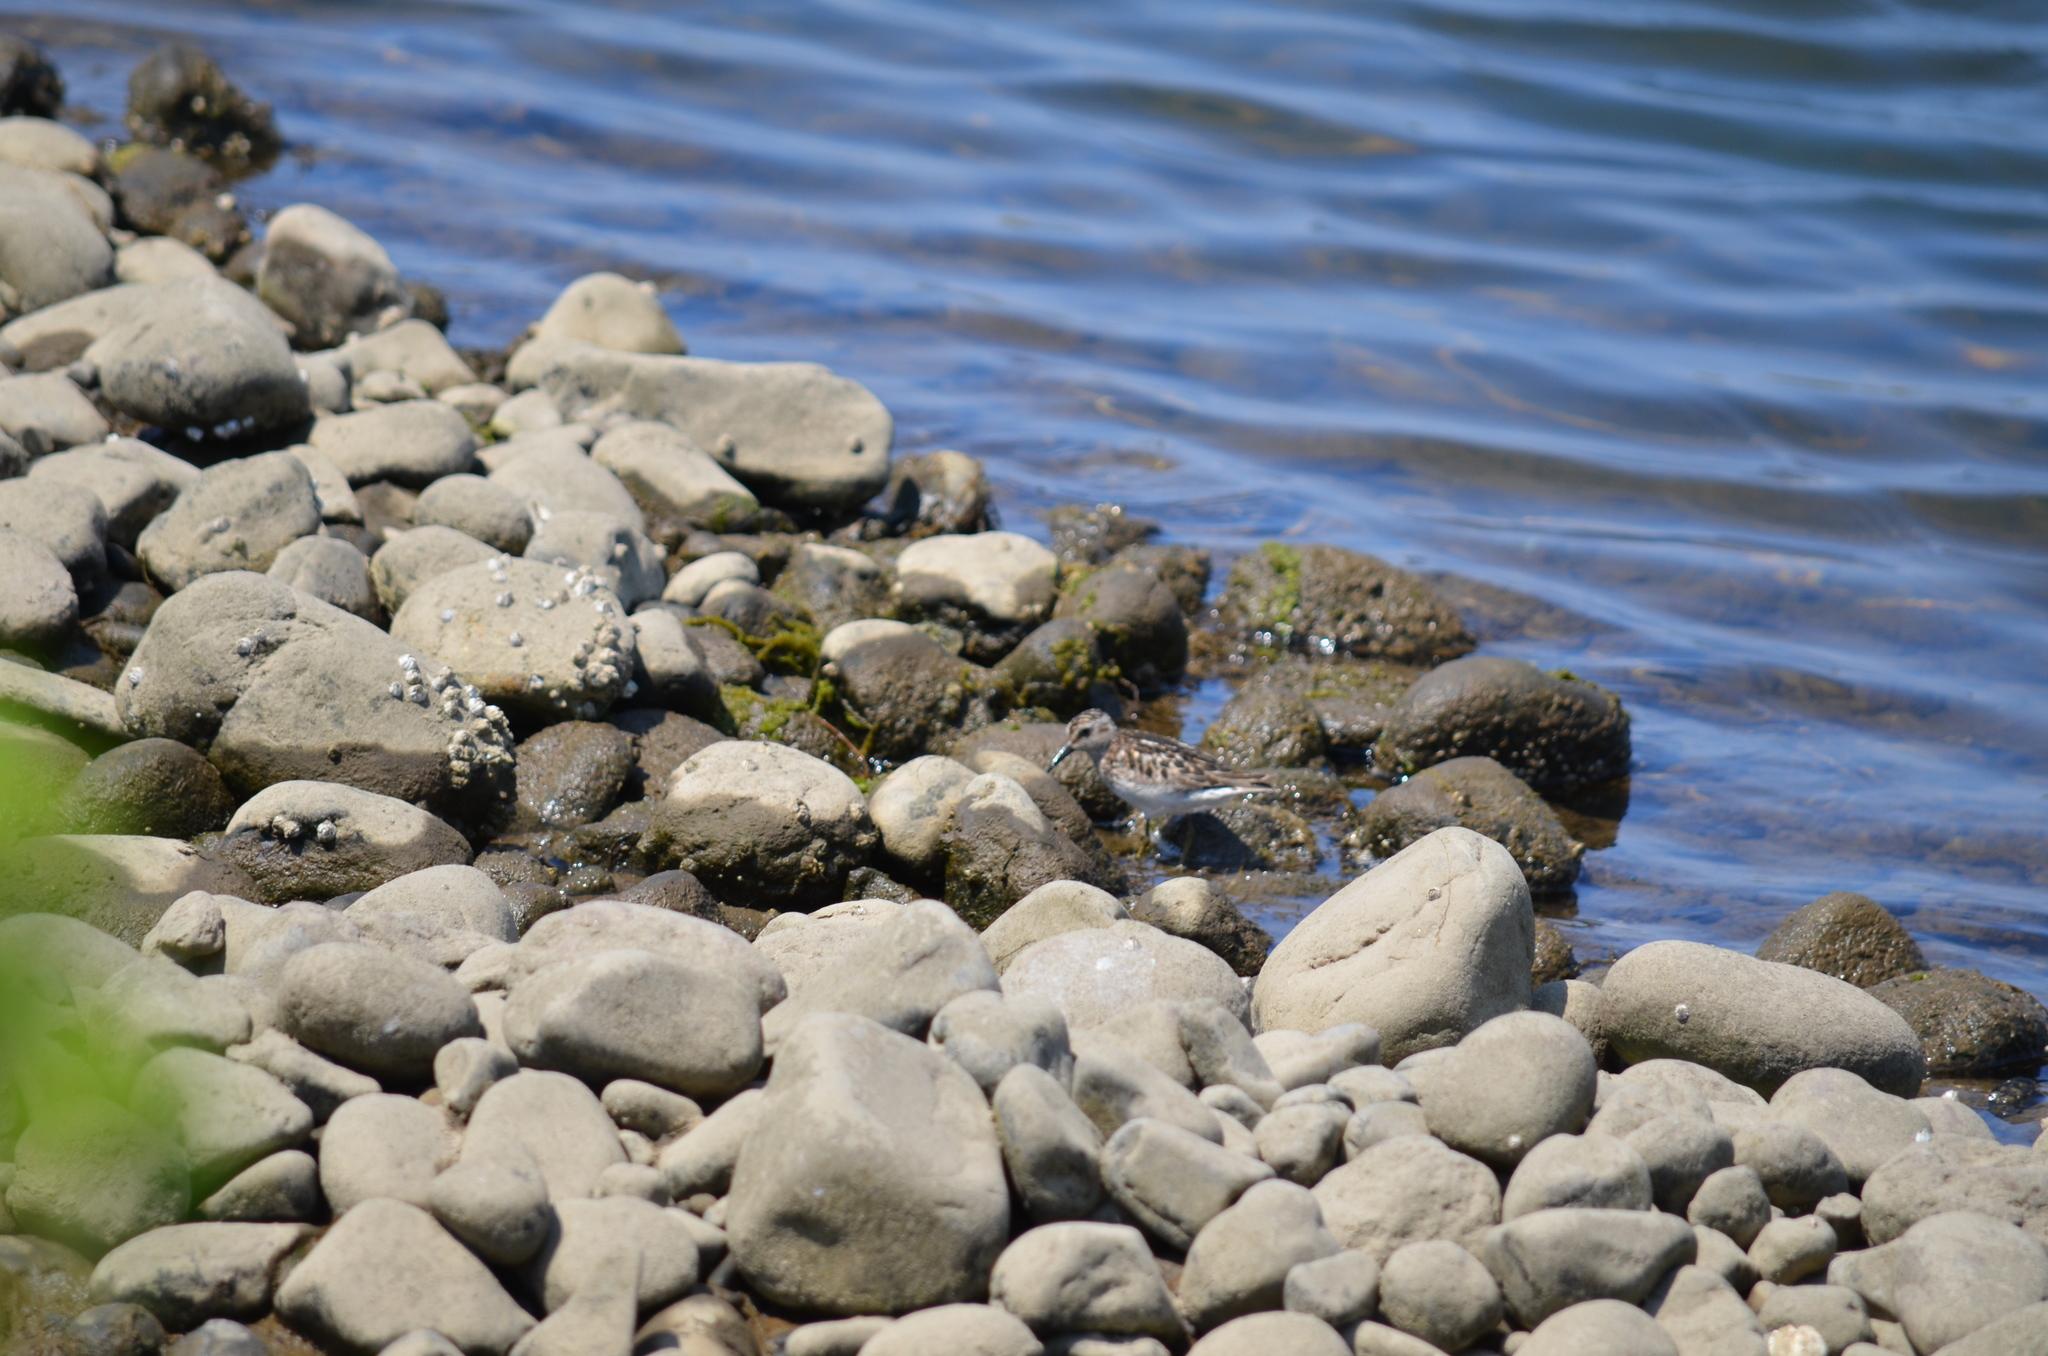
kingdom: Animalia
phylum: Chordata
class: Aves
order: Charadriiformes
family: Scolopacidae
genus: Calidris
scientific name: Calidris minutilla
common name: Least sandpiper
